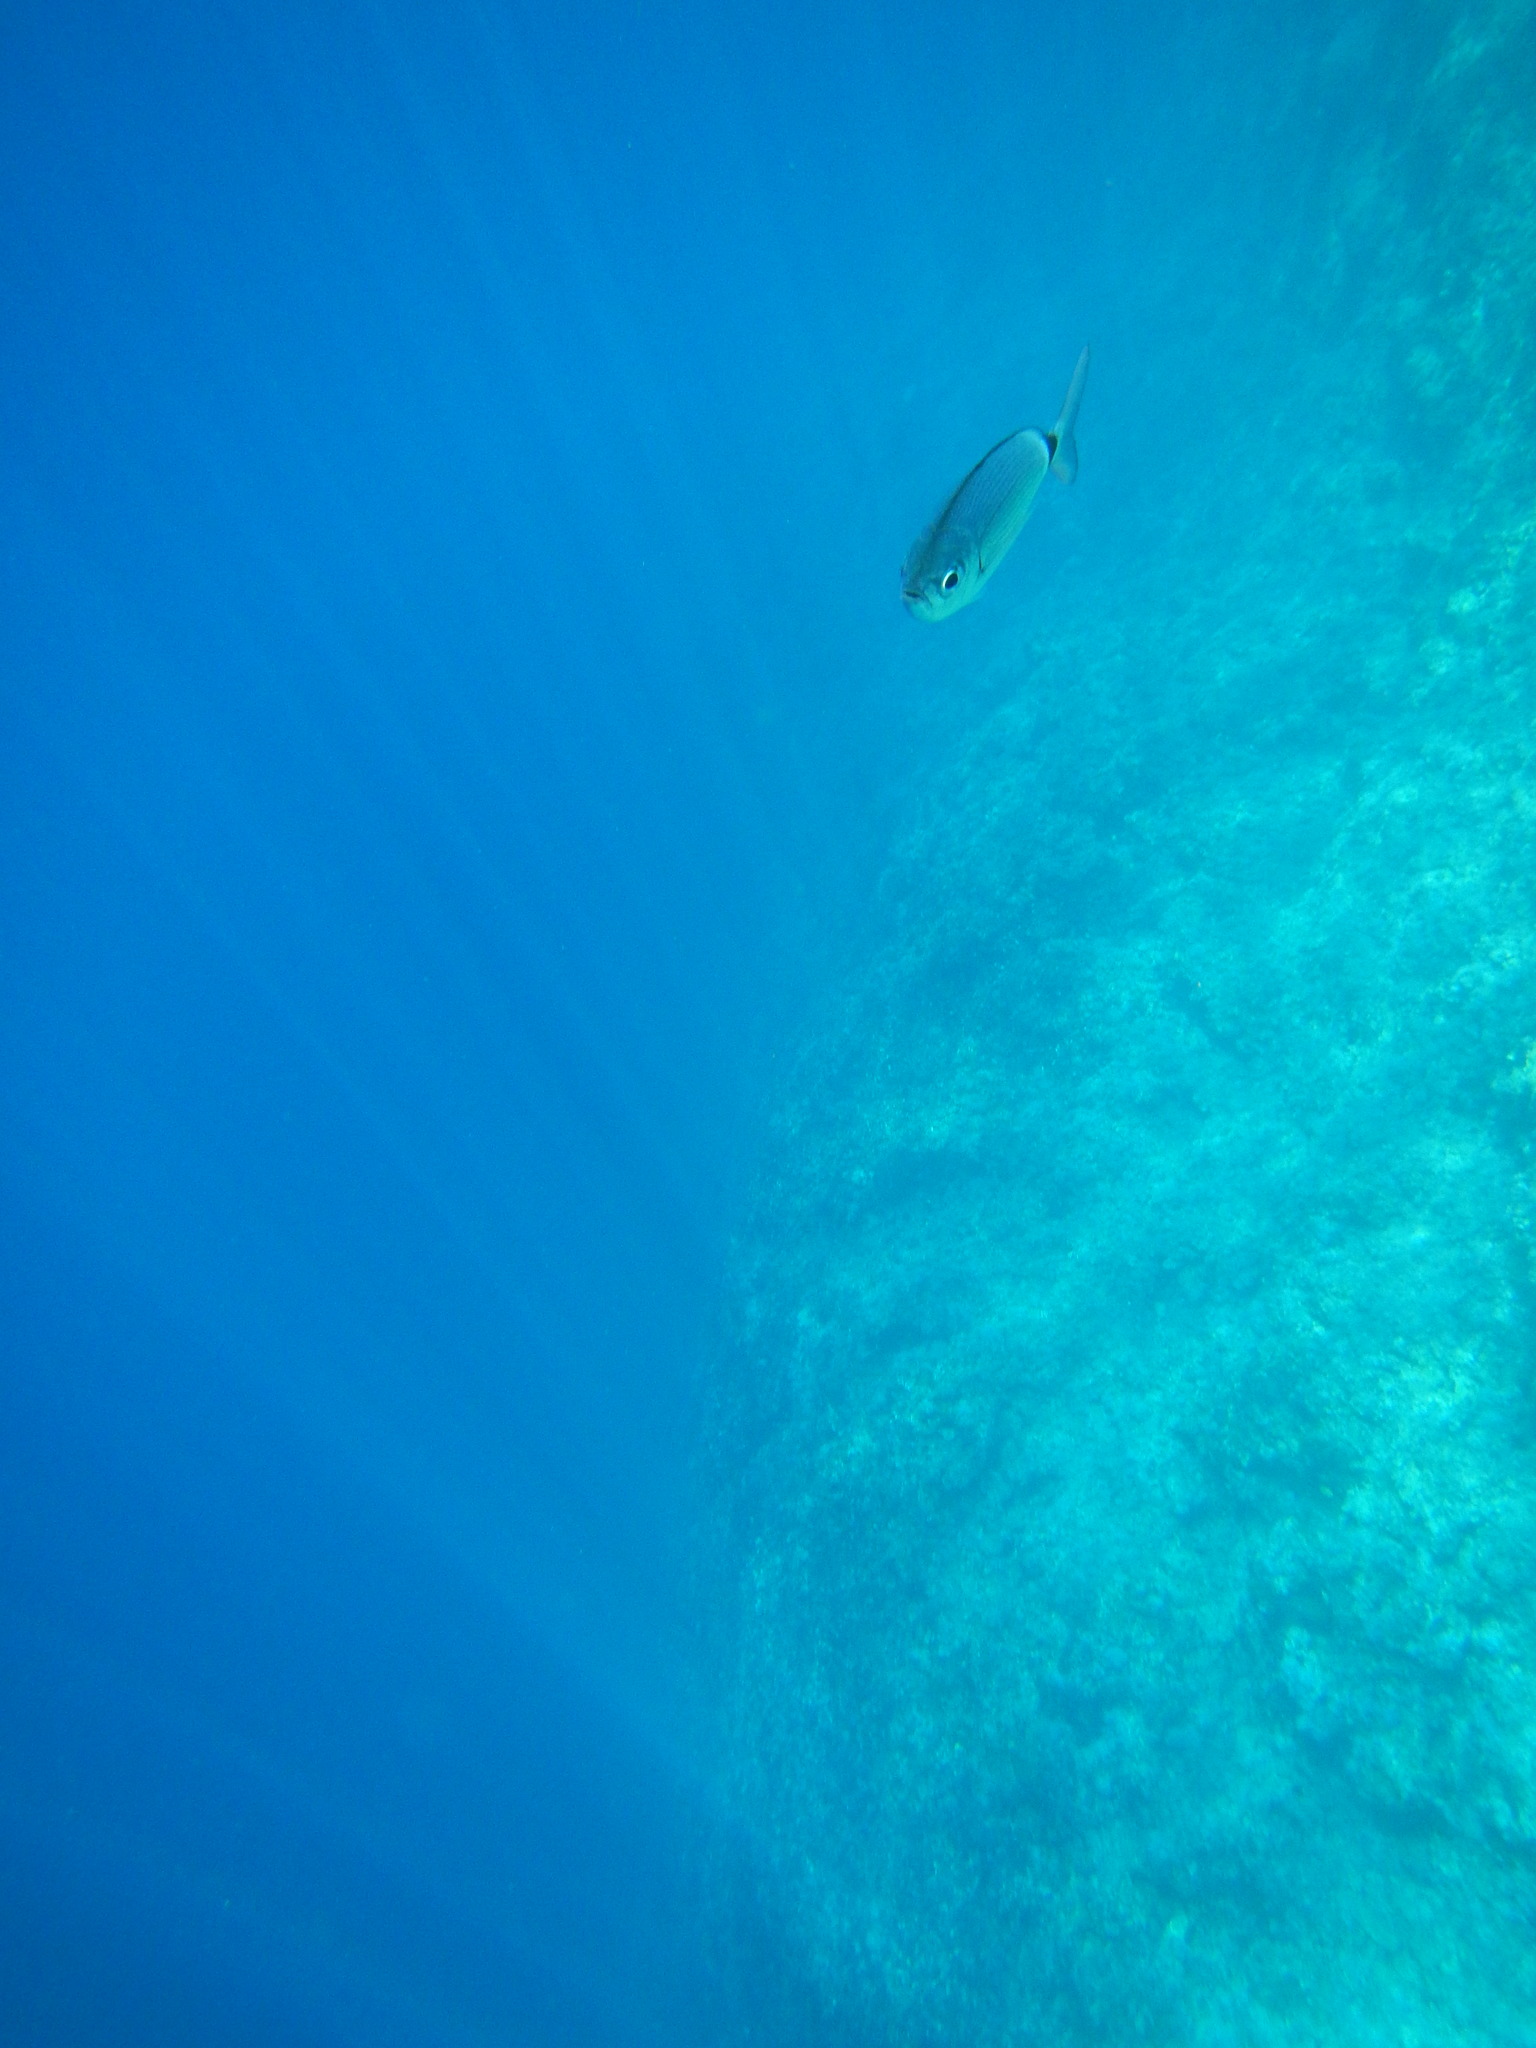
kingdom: Animalia
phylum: Chordata
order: Perciformes
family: Sparidae
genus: Oblada
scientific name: Oblada melanura
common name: Saddled seabream
